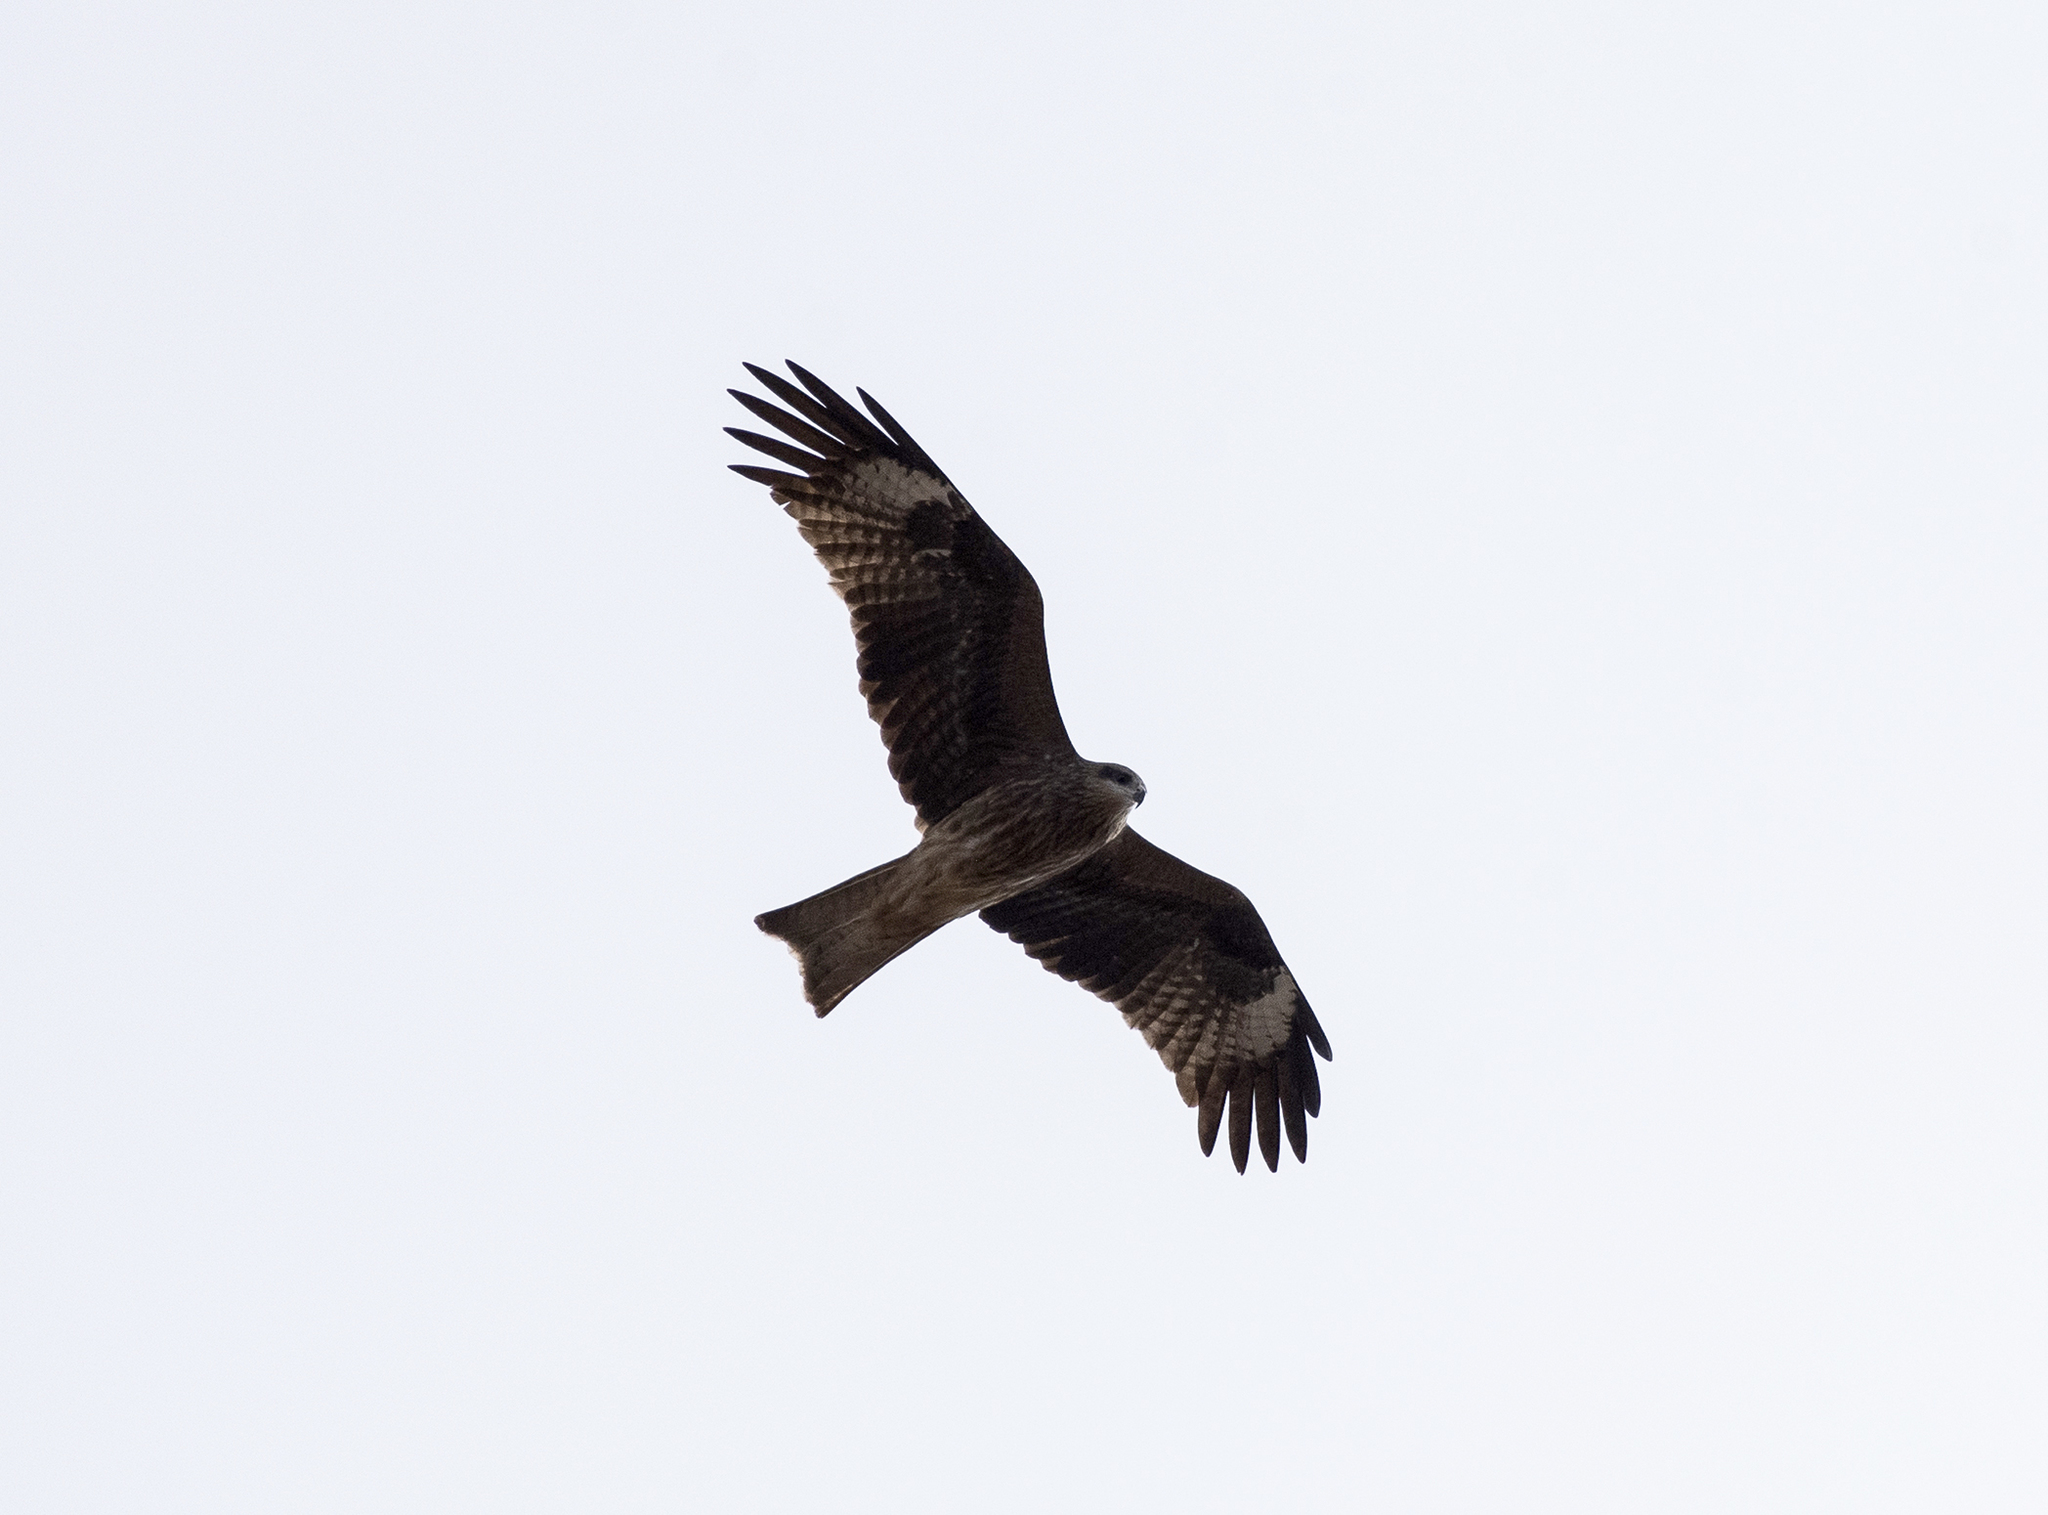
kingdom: Animalia
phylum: Chordata
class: Aves
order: Accipitriformes
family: Accipitridae
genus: Milvus
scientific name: Milvus migrans
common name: Black kite
